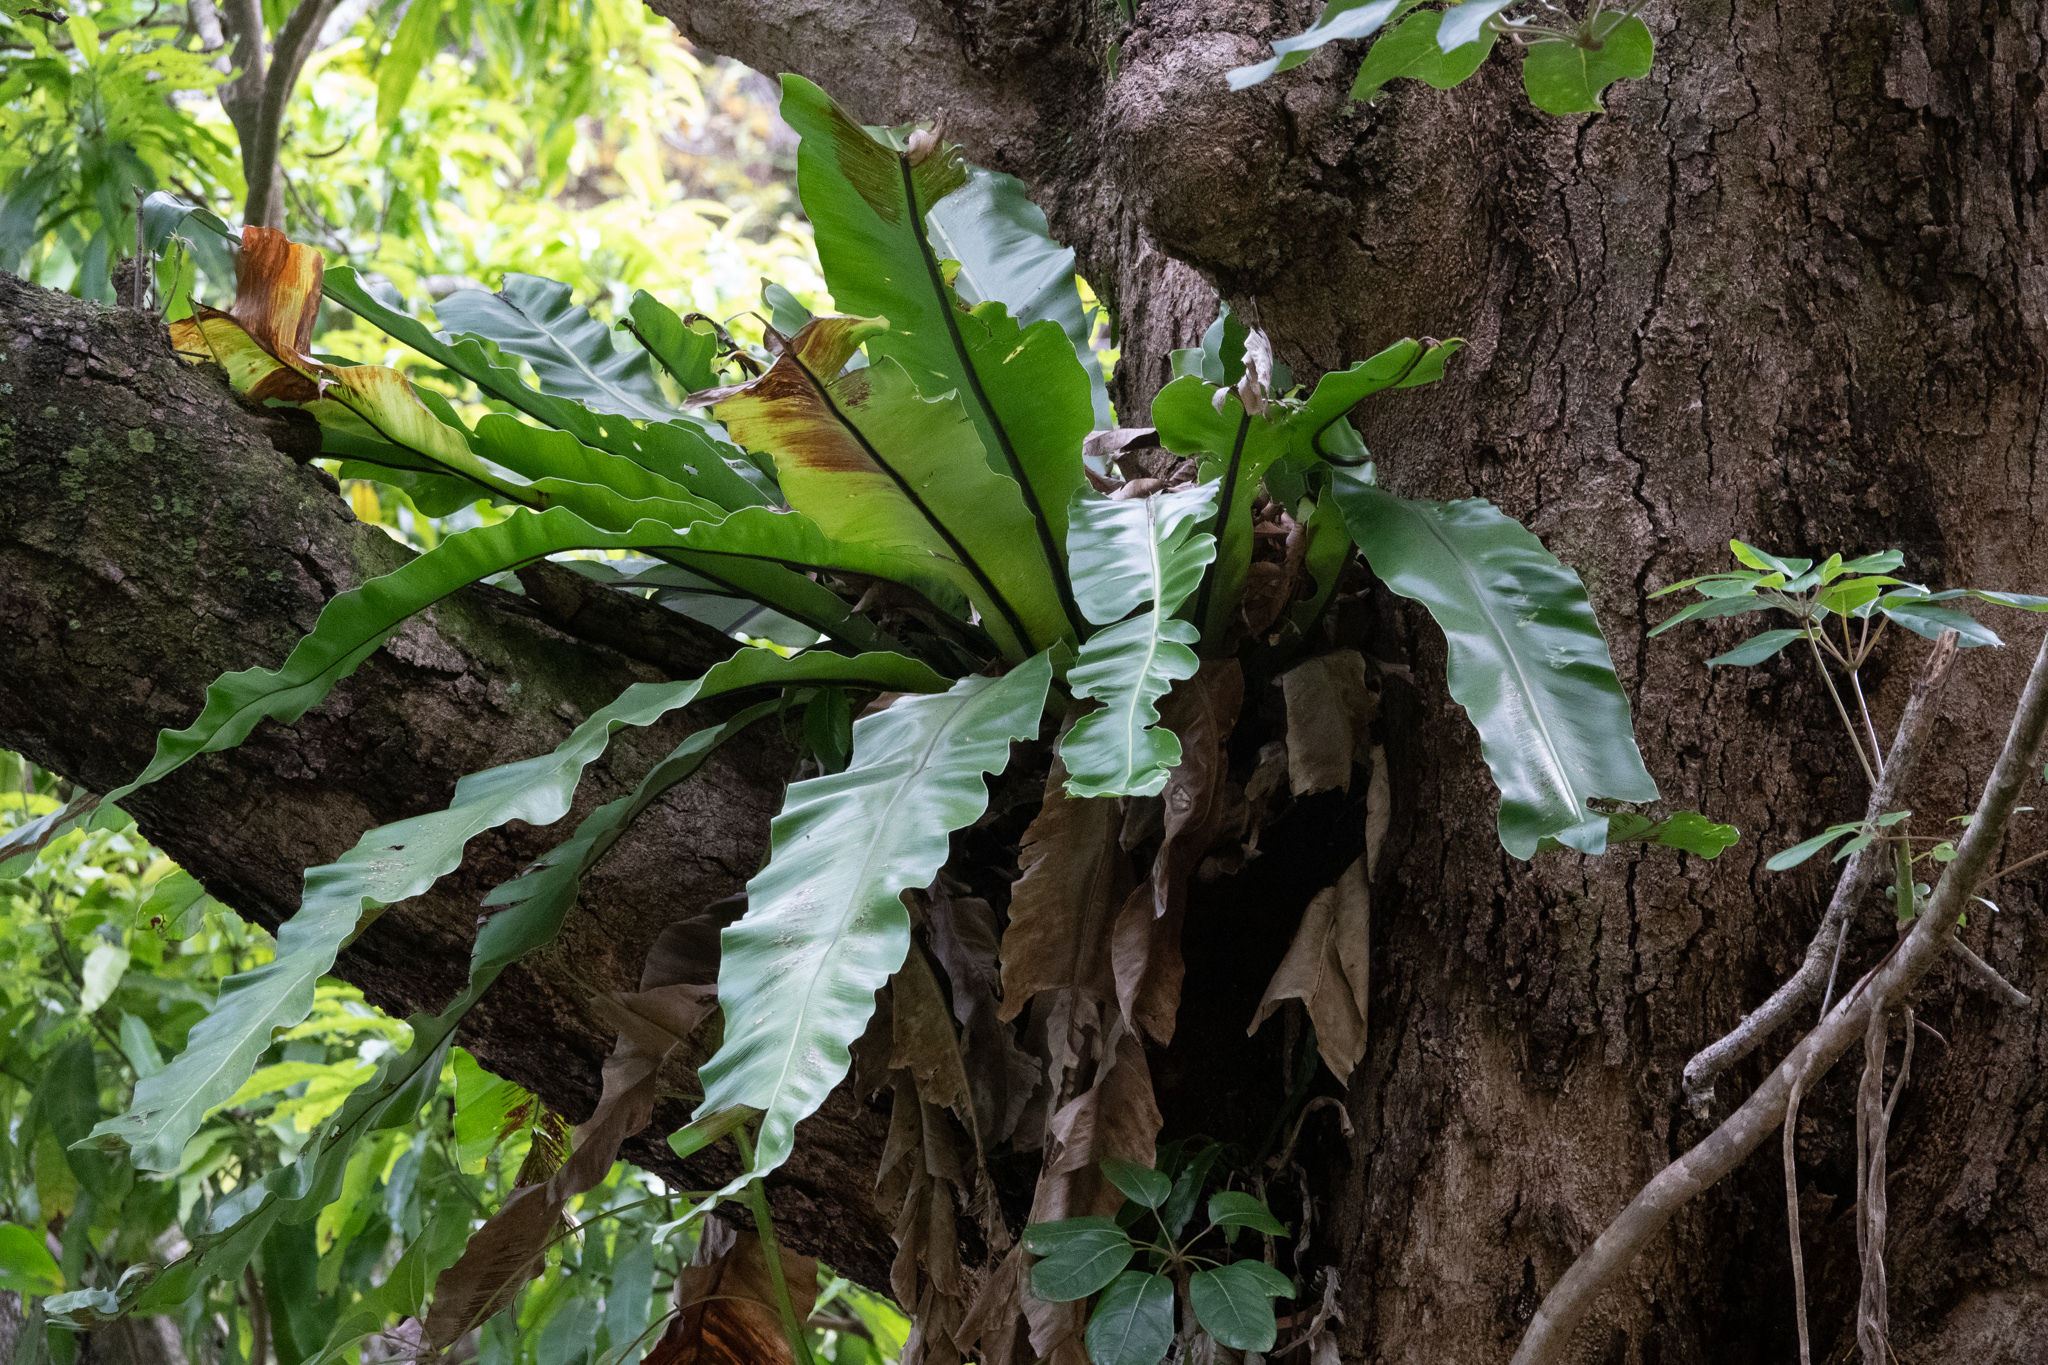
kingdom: Plantae
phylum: Tracheophyta
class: Polypodiopsida
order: Polypodiales
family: Aspleniaceae
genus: Asplenium
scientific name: Asplenium nidus
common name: Bird's-nest fern
